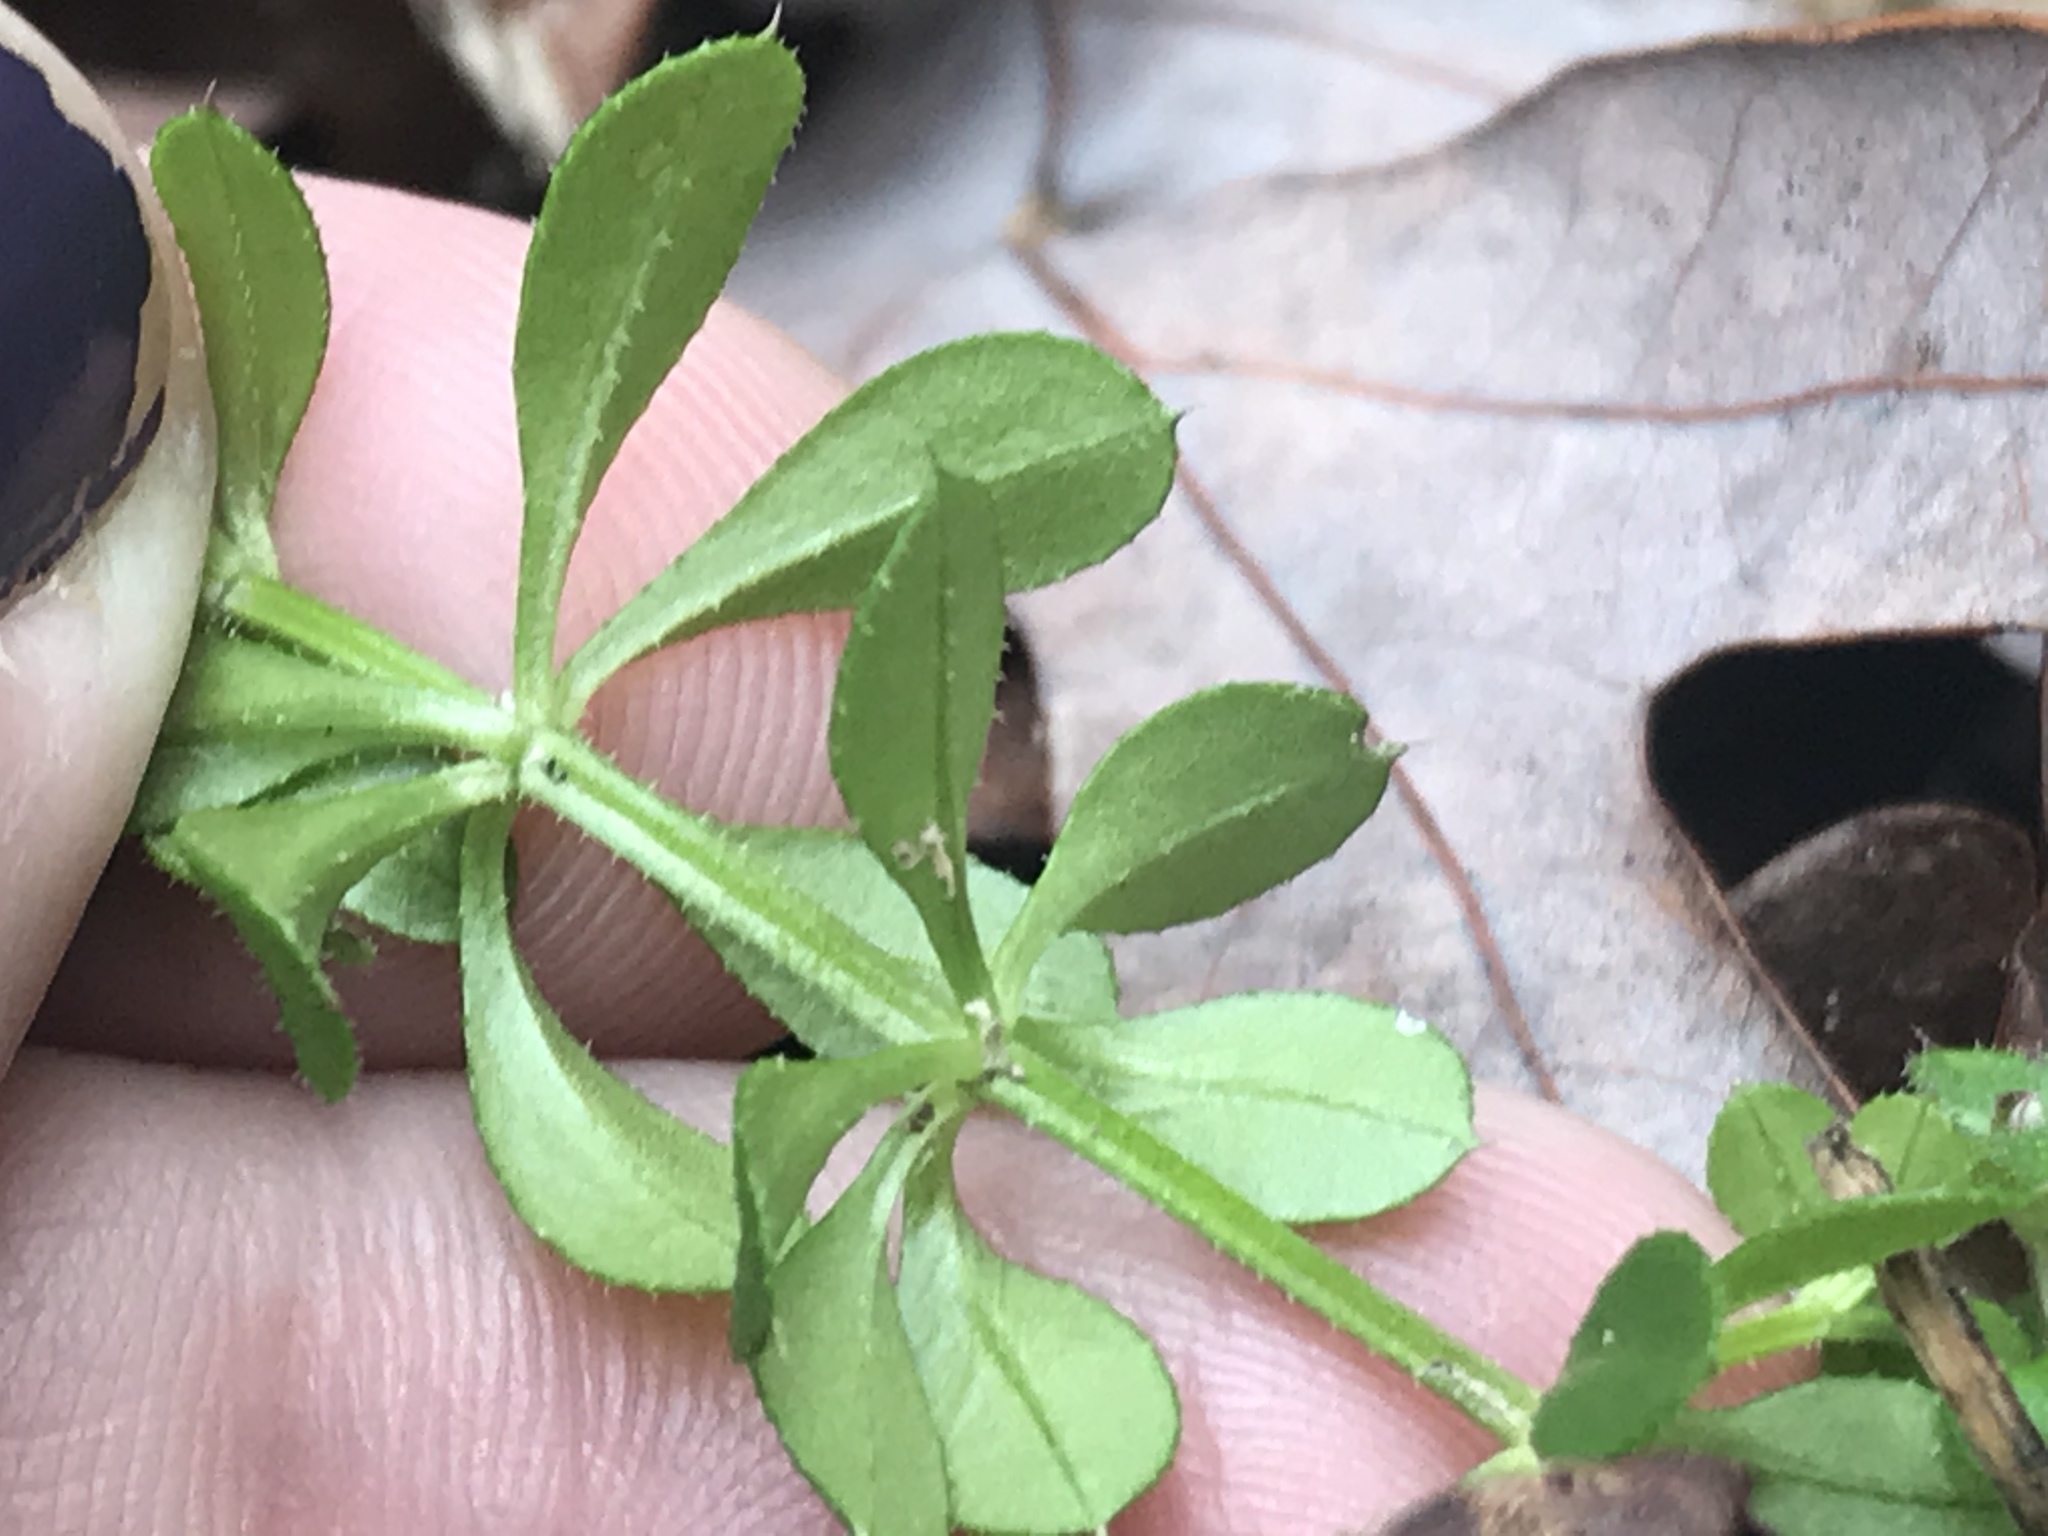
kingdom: Plantae
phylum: Tracheophyta
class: Magnoliopsida
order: Gentianales
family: Rubiaceae
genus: Galium
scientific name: Galium aparine
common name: Cleavers
